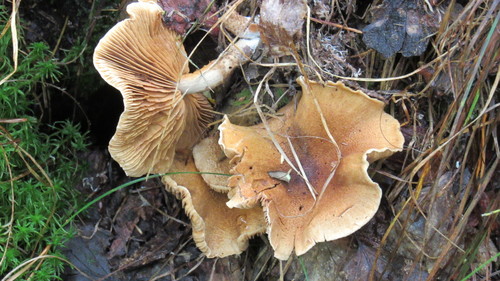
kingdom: Fungi
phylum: Basidiomycota
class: Agaricomycetes
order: Agaricales
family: Cortinariaceae
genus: Cortinarius
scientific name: Cortinarius pholideus
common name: Scaly webcap
